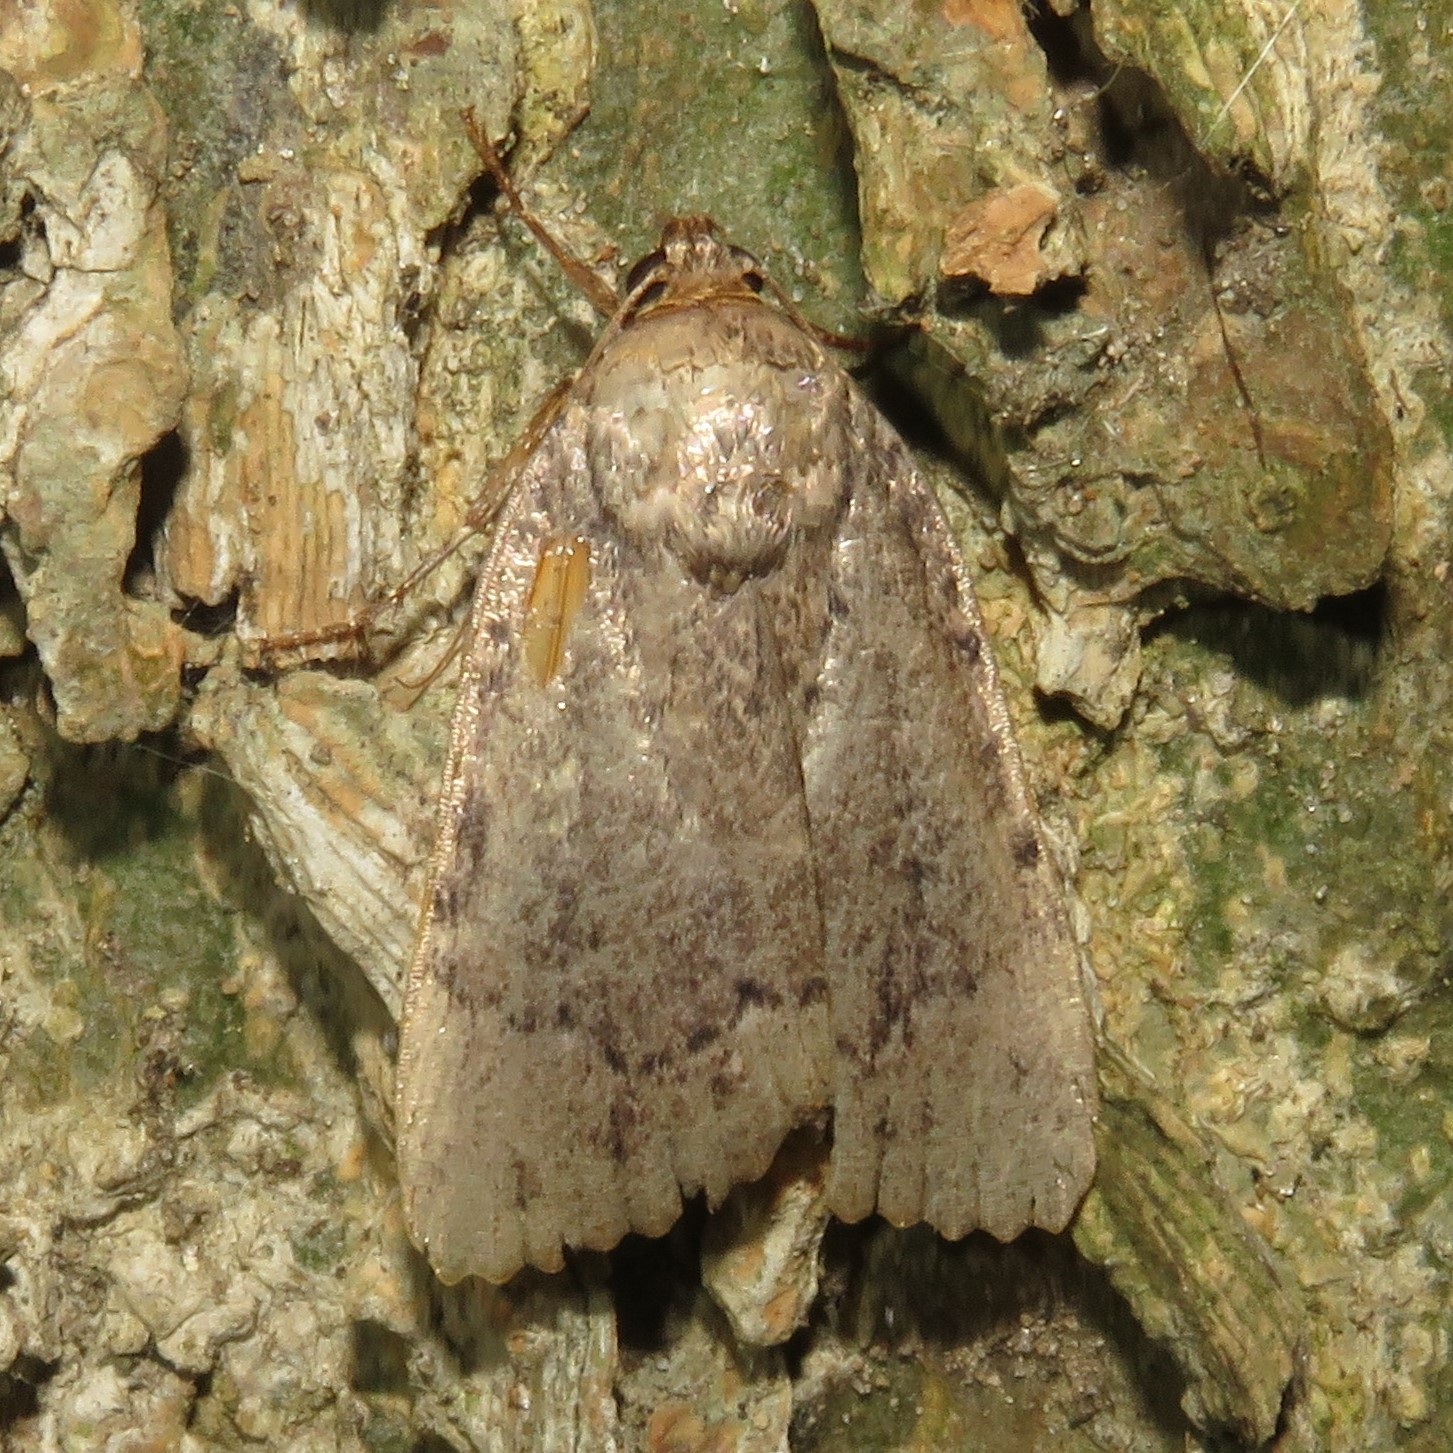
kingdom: Animalia
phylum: Arthropoda
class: Insecta
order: Lepidoptera
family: Noctuidae
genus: Amphipyra
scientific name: Amphipyra pyramidoides
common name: American copper underwing
